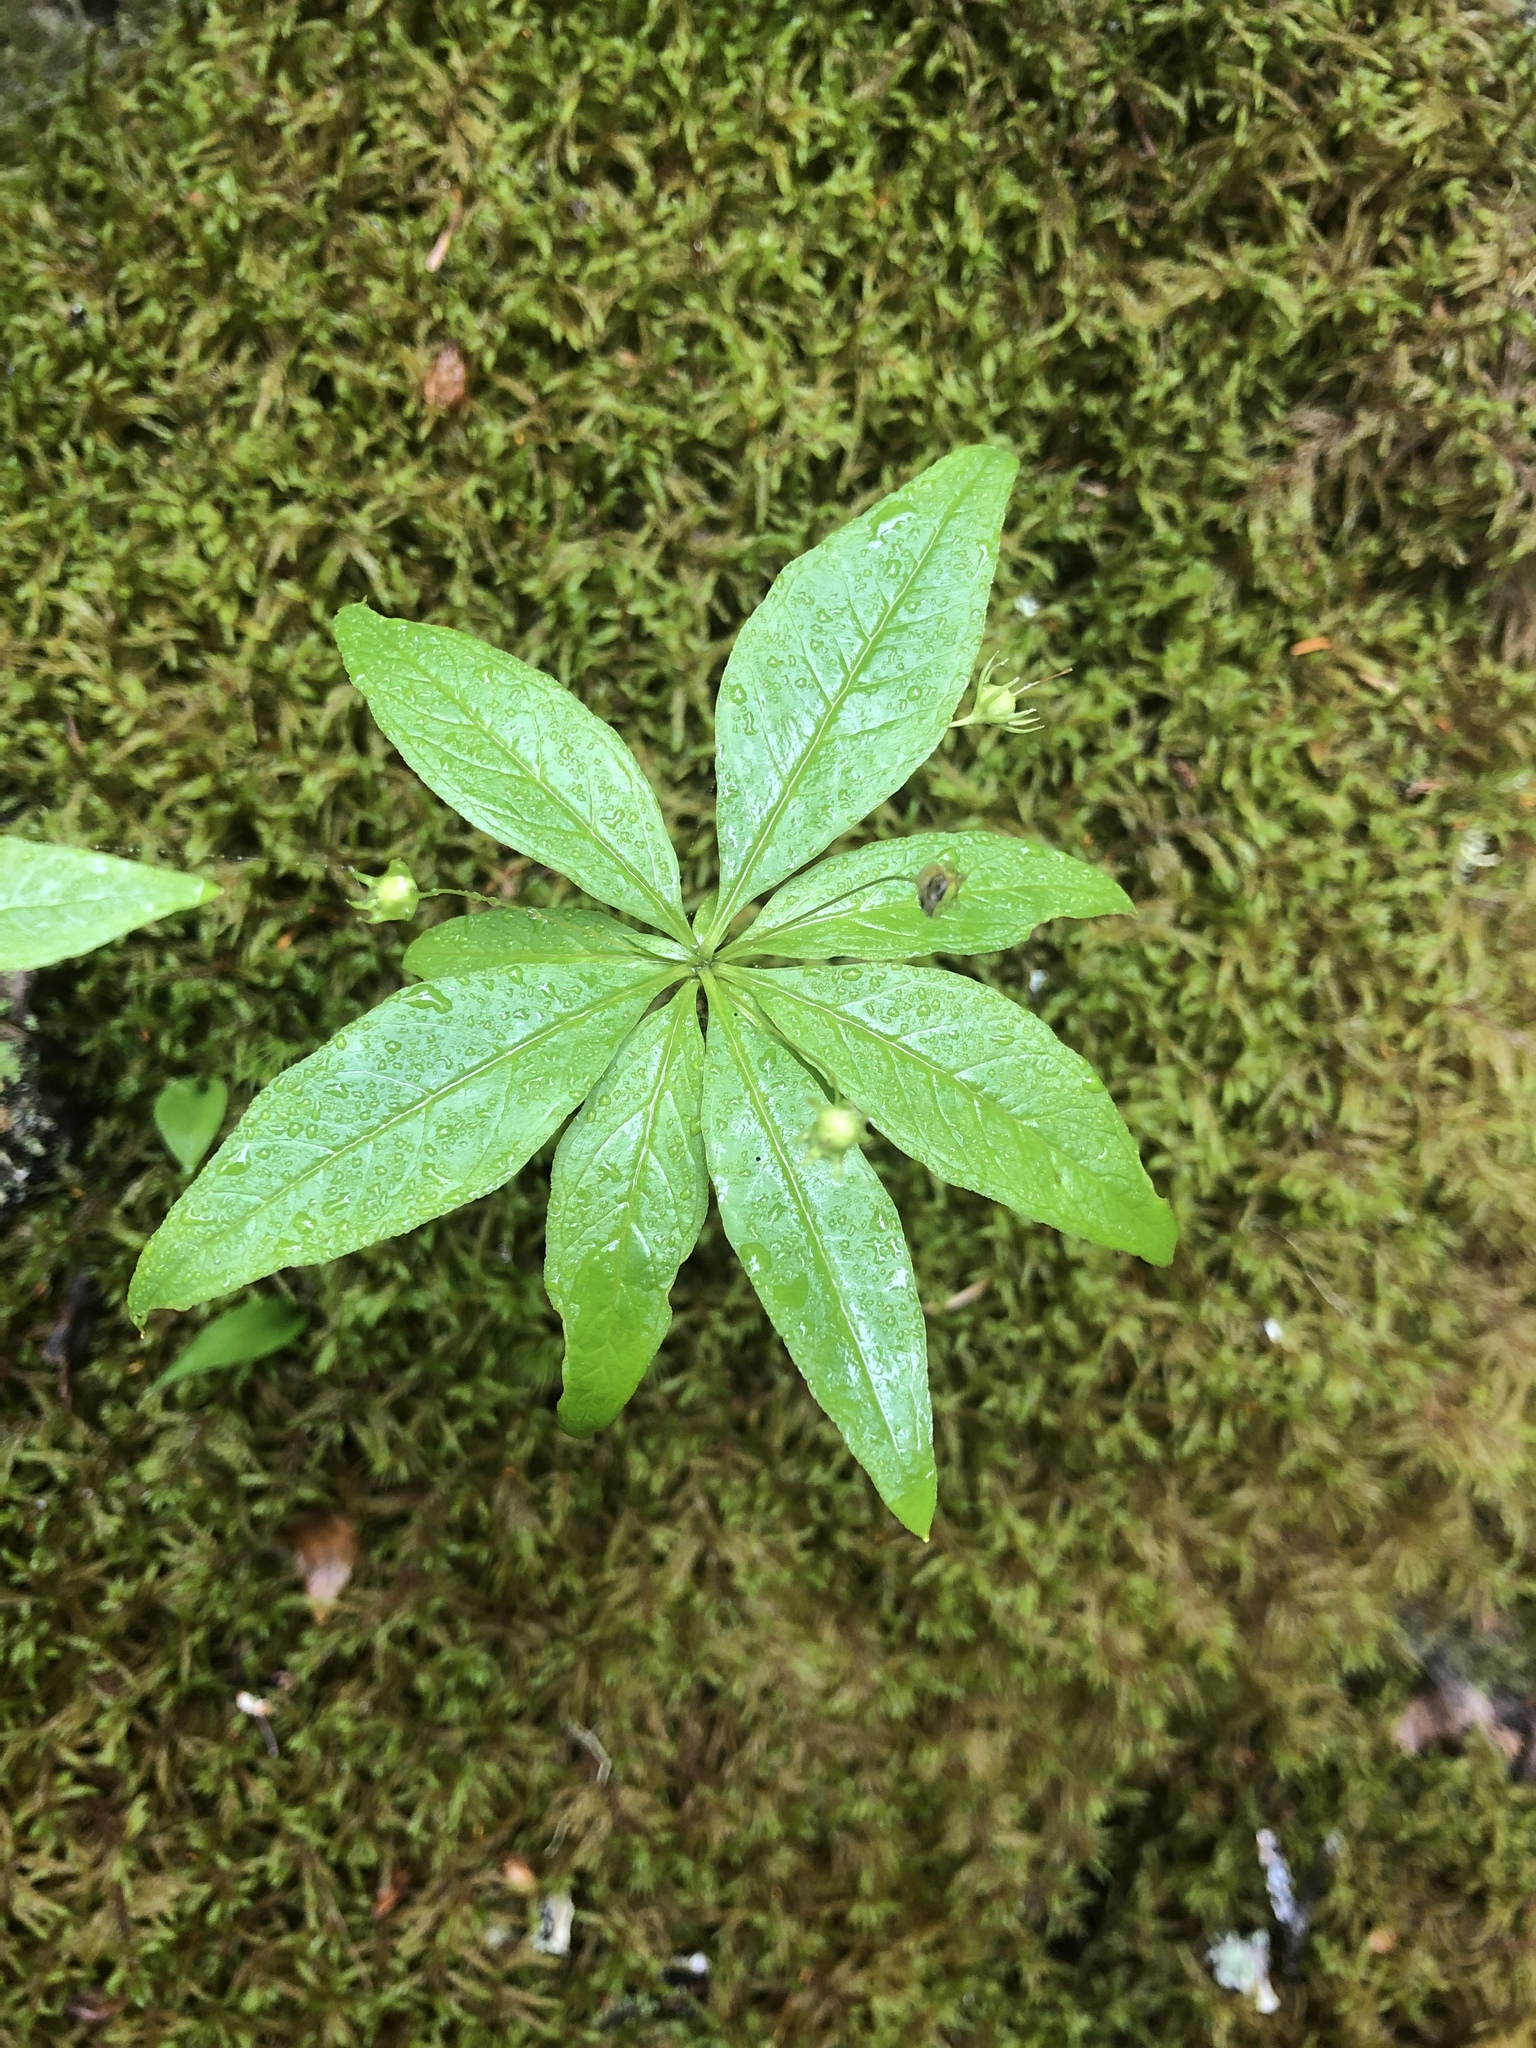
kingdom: Plantae
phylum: Tracheophyta
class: Magnoliopsida
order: Ericales
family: Primulaceae
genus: Lysimachia
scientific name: Lysimachia borealis
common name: American starflower
